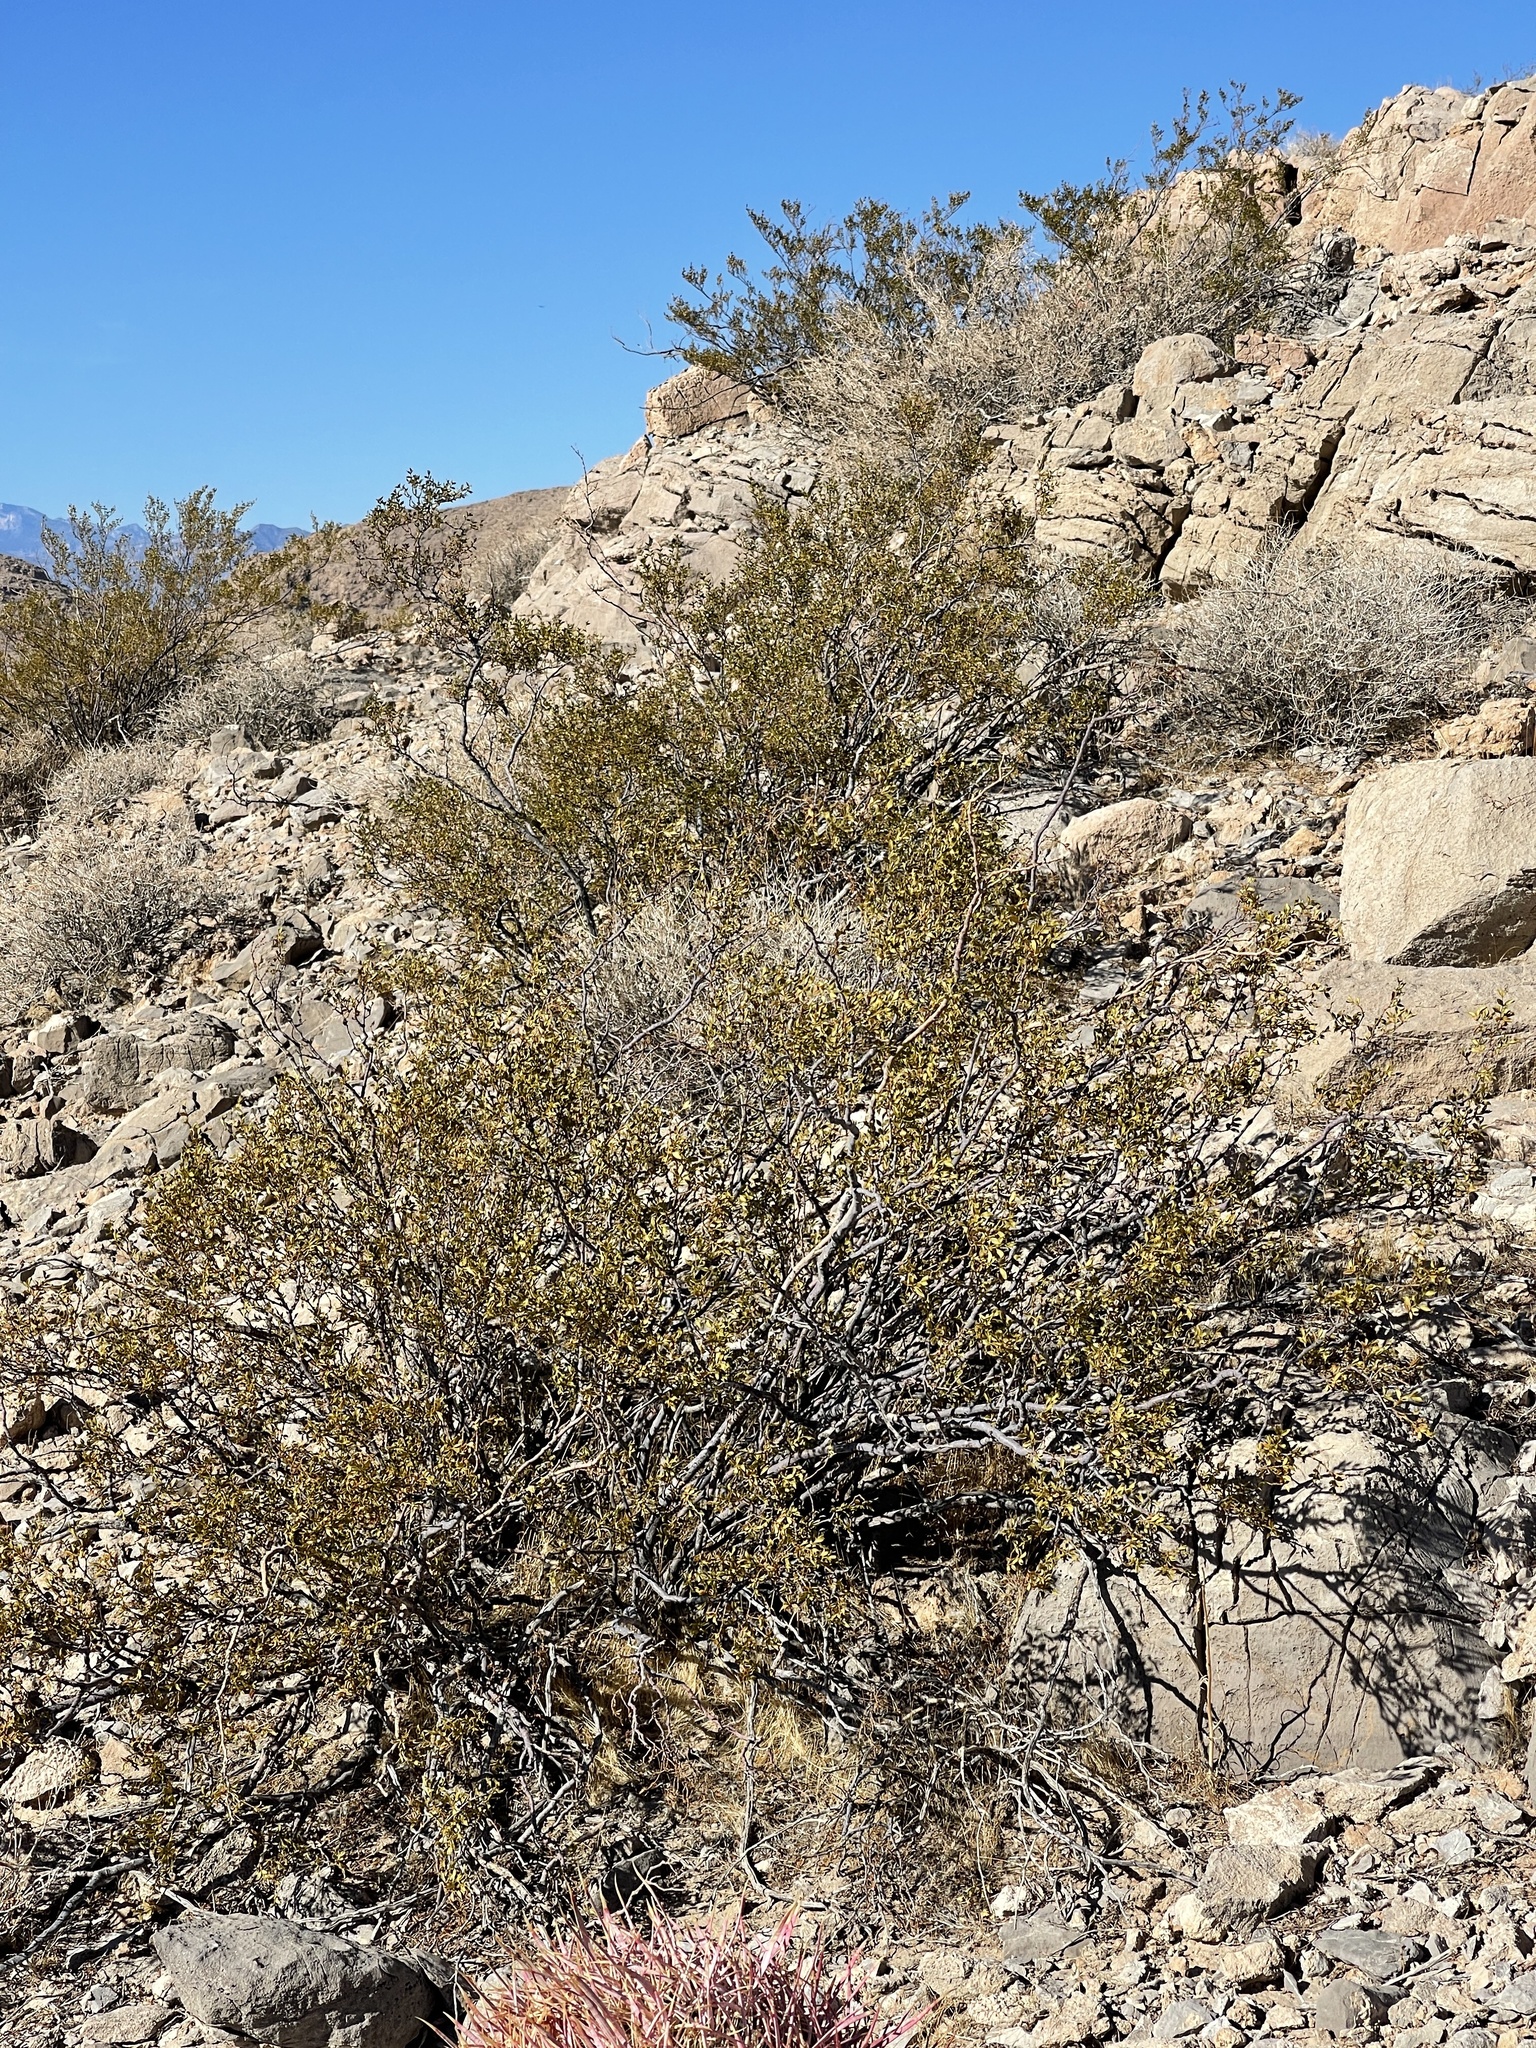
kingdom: Plantae
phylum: Tracheophyta
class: Magnoliopsida
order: Zygophyllales
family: Zygophyllaceae
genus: Larrea
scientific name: Larrea tridentata
